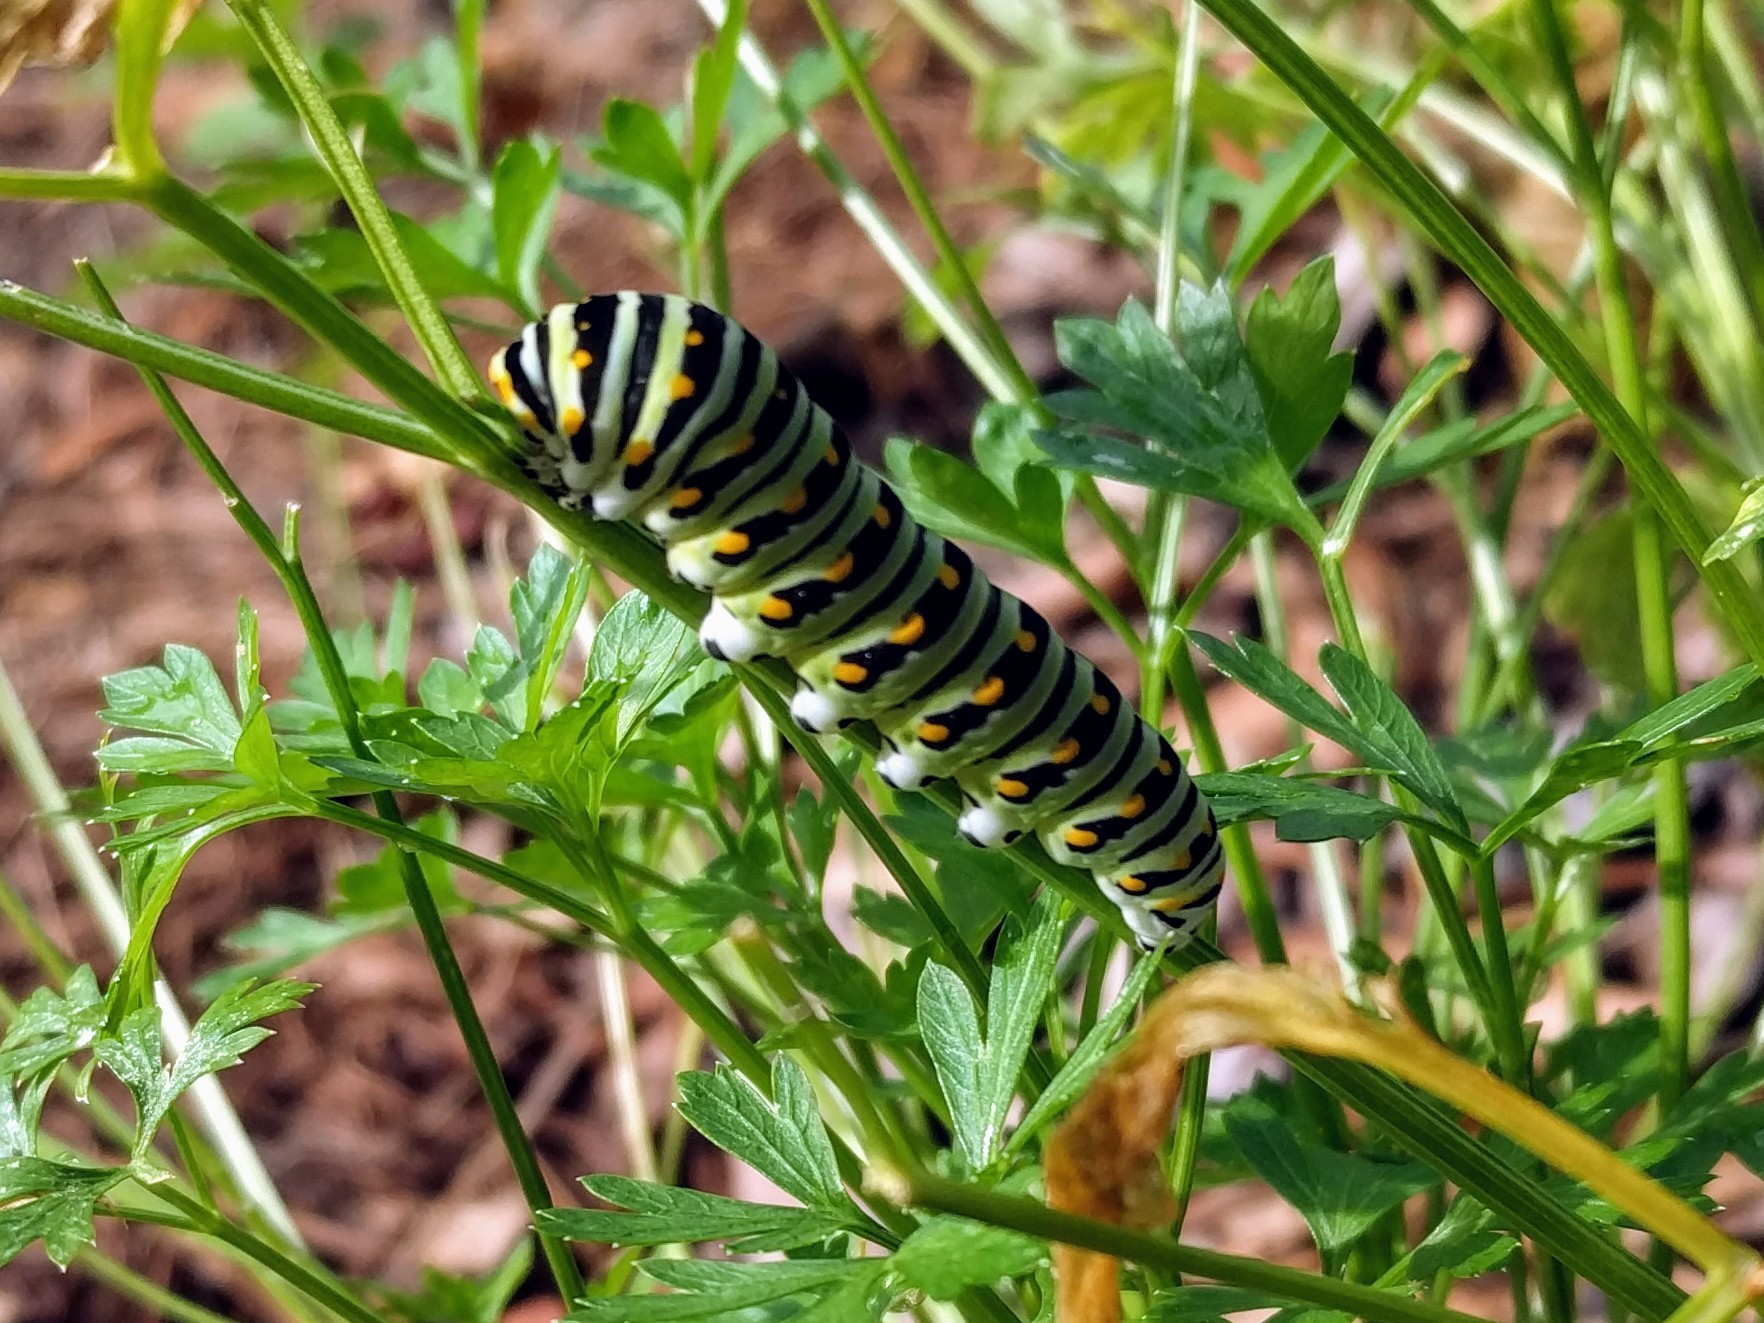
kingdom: Animalia
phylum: Arthropoda
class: Insecta
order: Lepidoptera
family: Papilionidae
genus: Papilio
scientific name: Papilio polyxenes
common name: Black swallowtail
